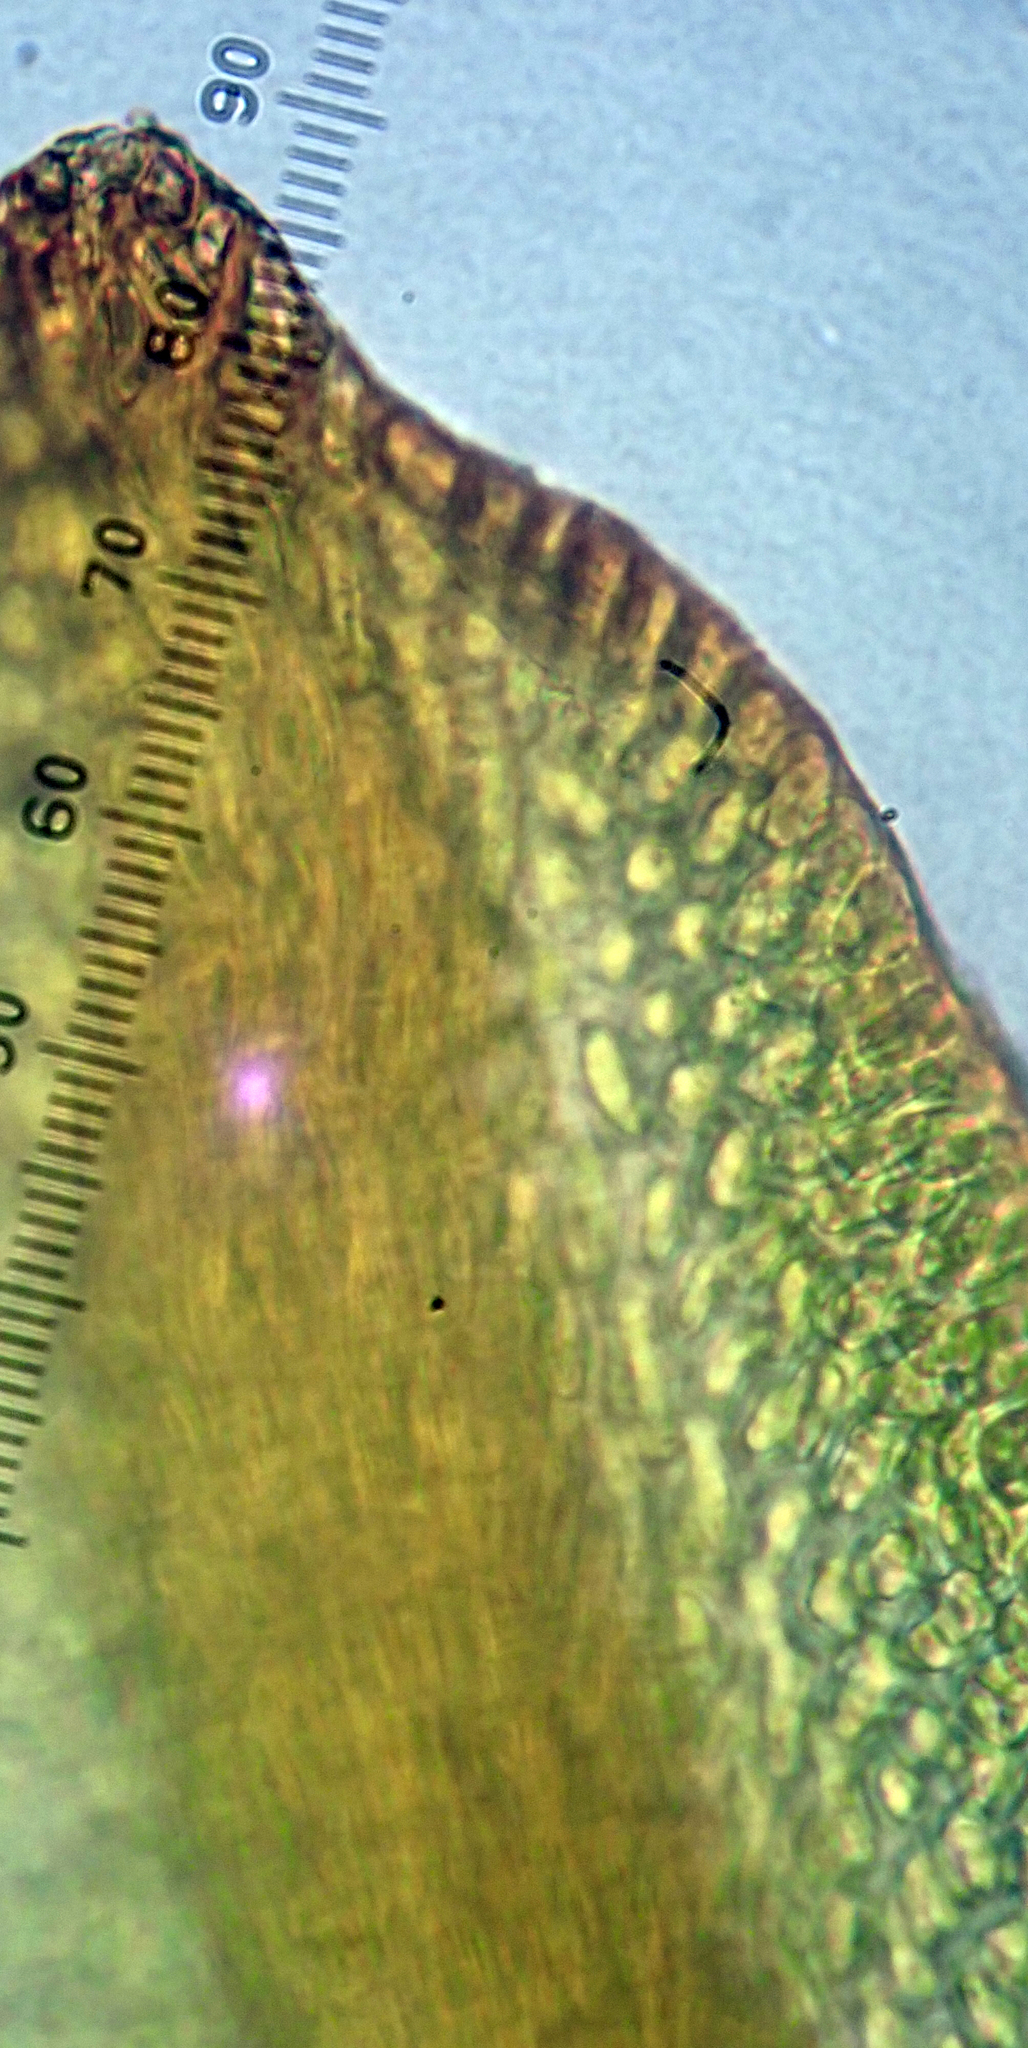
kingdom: Plantae
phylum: Bryophyta
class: Bryopsida
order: Orthotrichales
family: Orthotrichaceae
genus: Codonoblepharon
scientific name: Codonoblepharon menziesii
